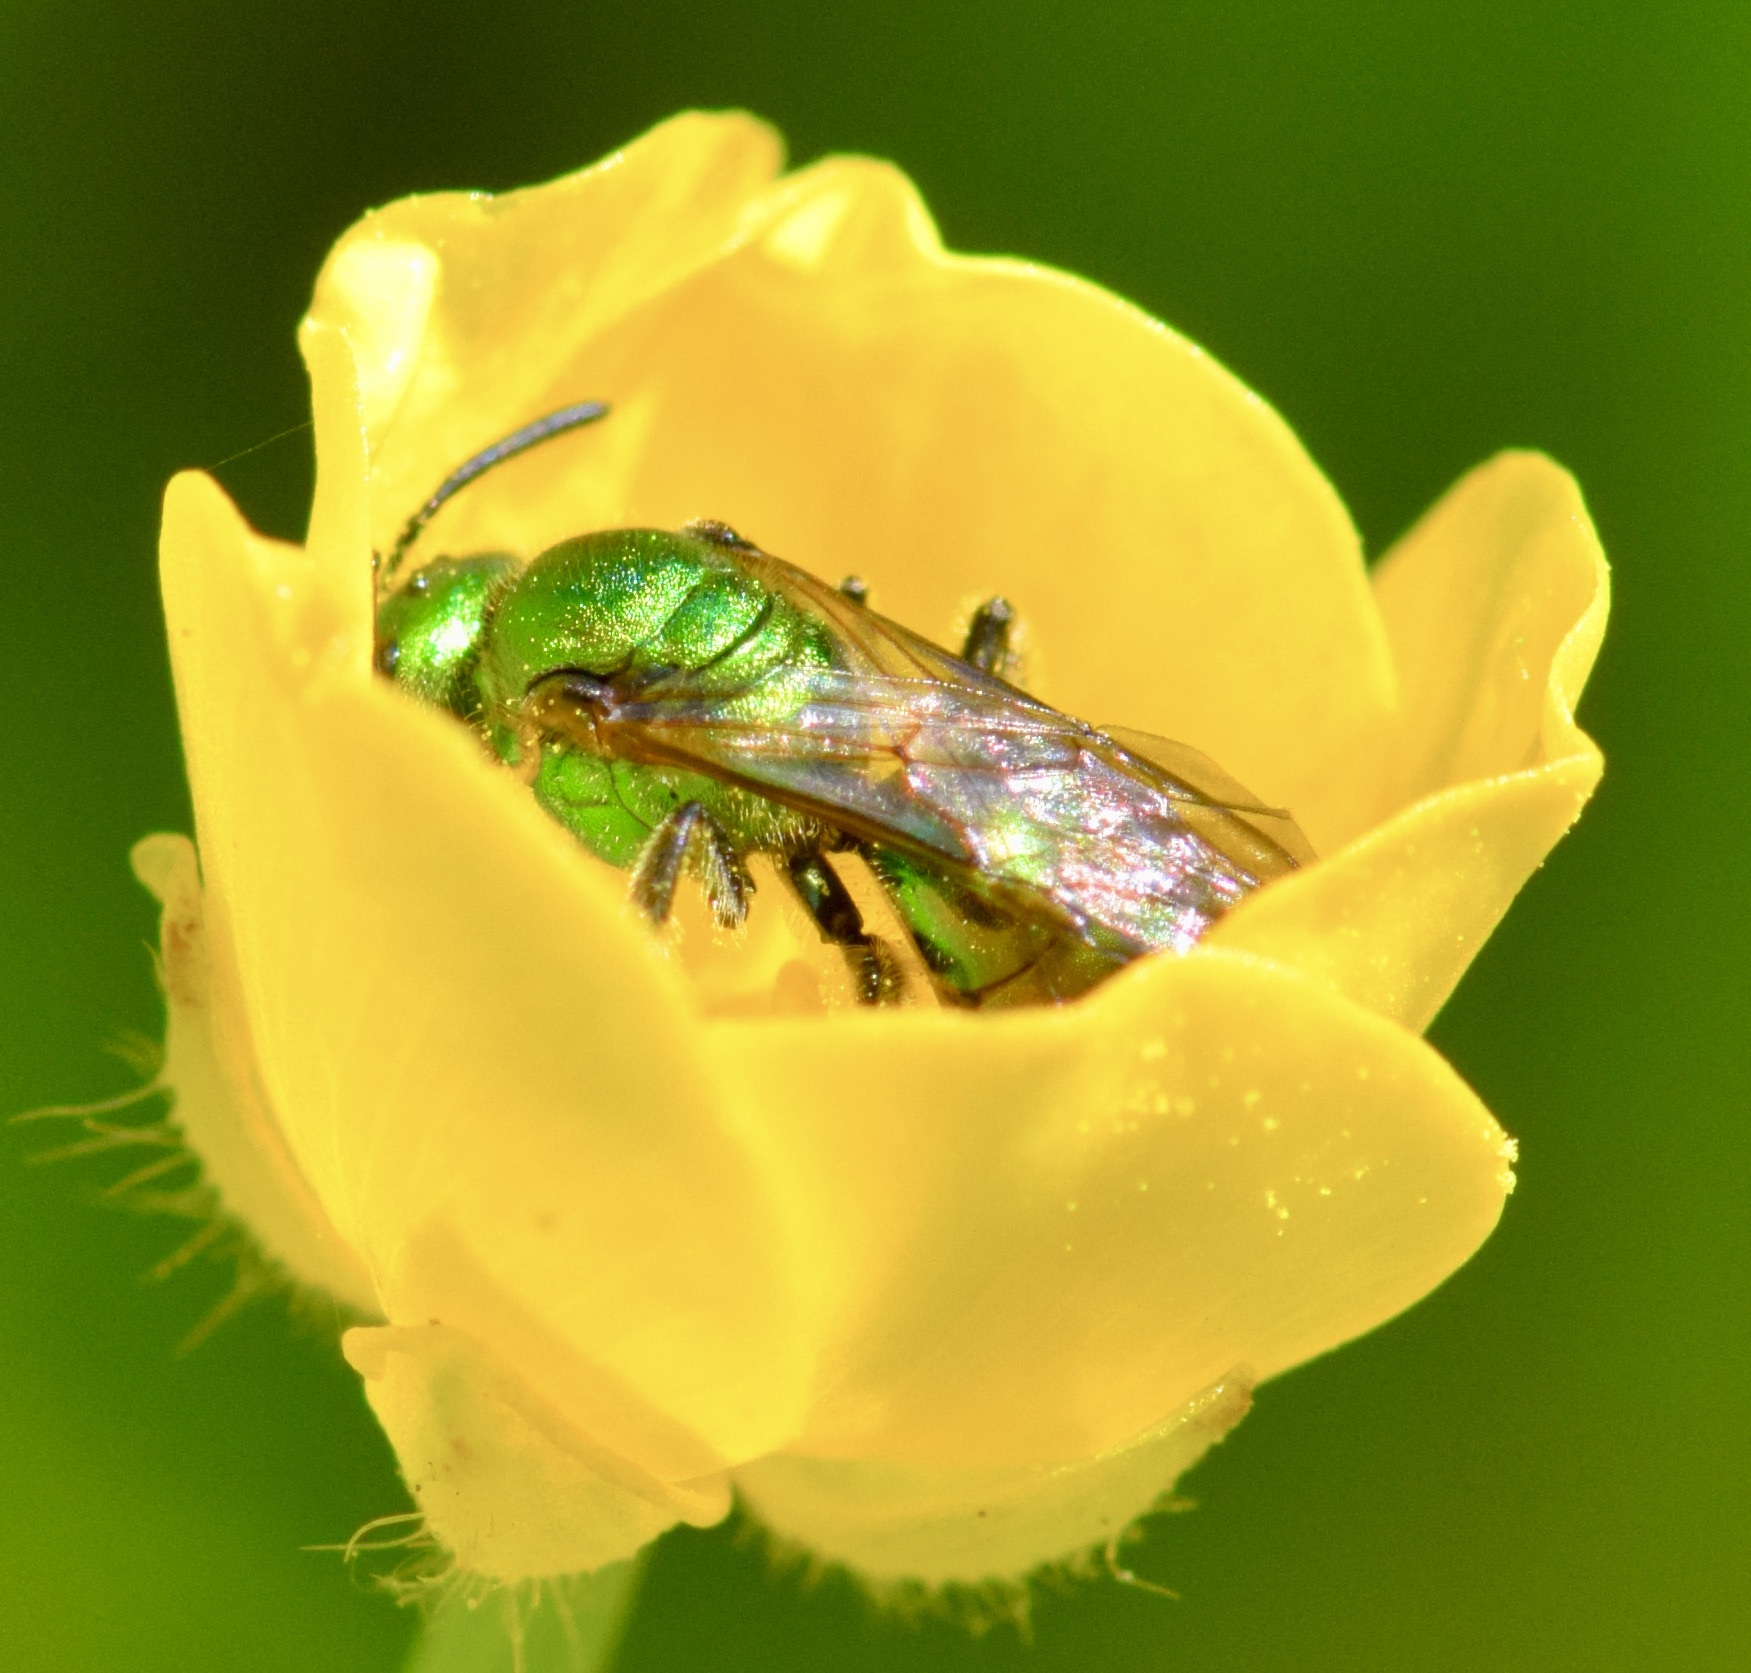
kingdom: Animalia
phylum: Arthropoda
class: Insecta
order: Hymenoptera
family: Halictidae
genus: Augochlora
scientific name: Augochlora pura
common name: Pure green sweat bee
